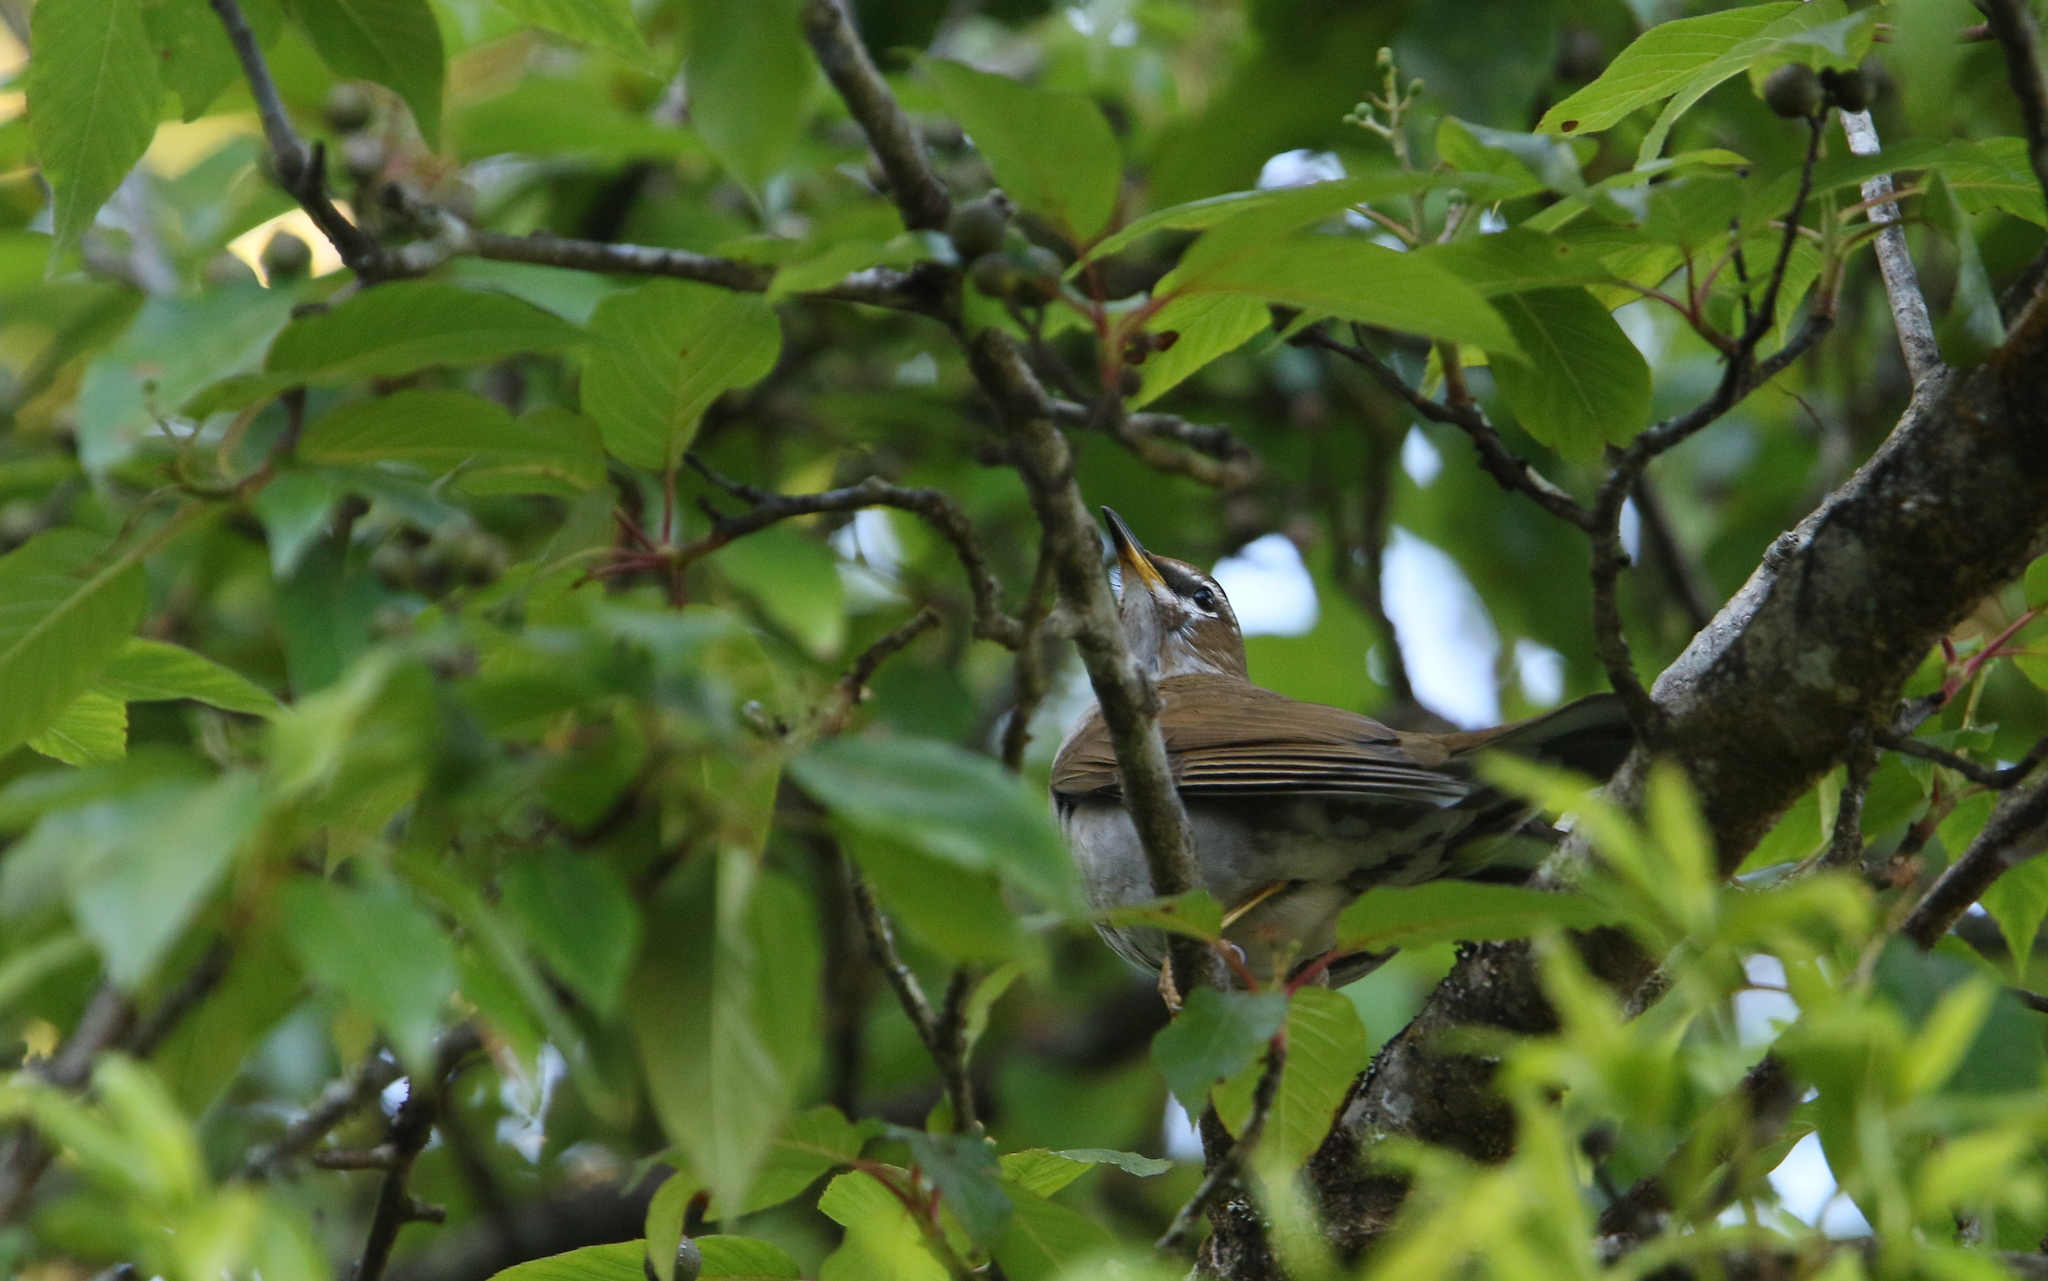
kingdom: Animalia
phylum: Chordata
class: Aves
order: Passeriformes
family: Turdidae
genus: Turdus
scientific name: Turdus feae
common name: Grey-sided thrush
